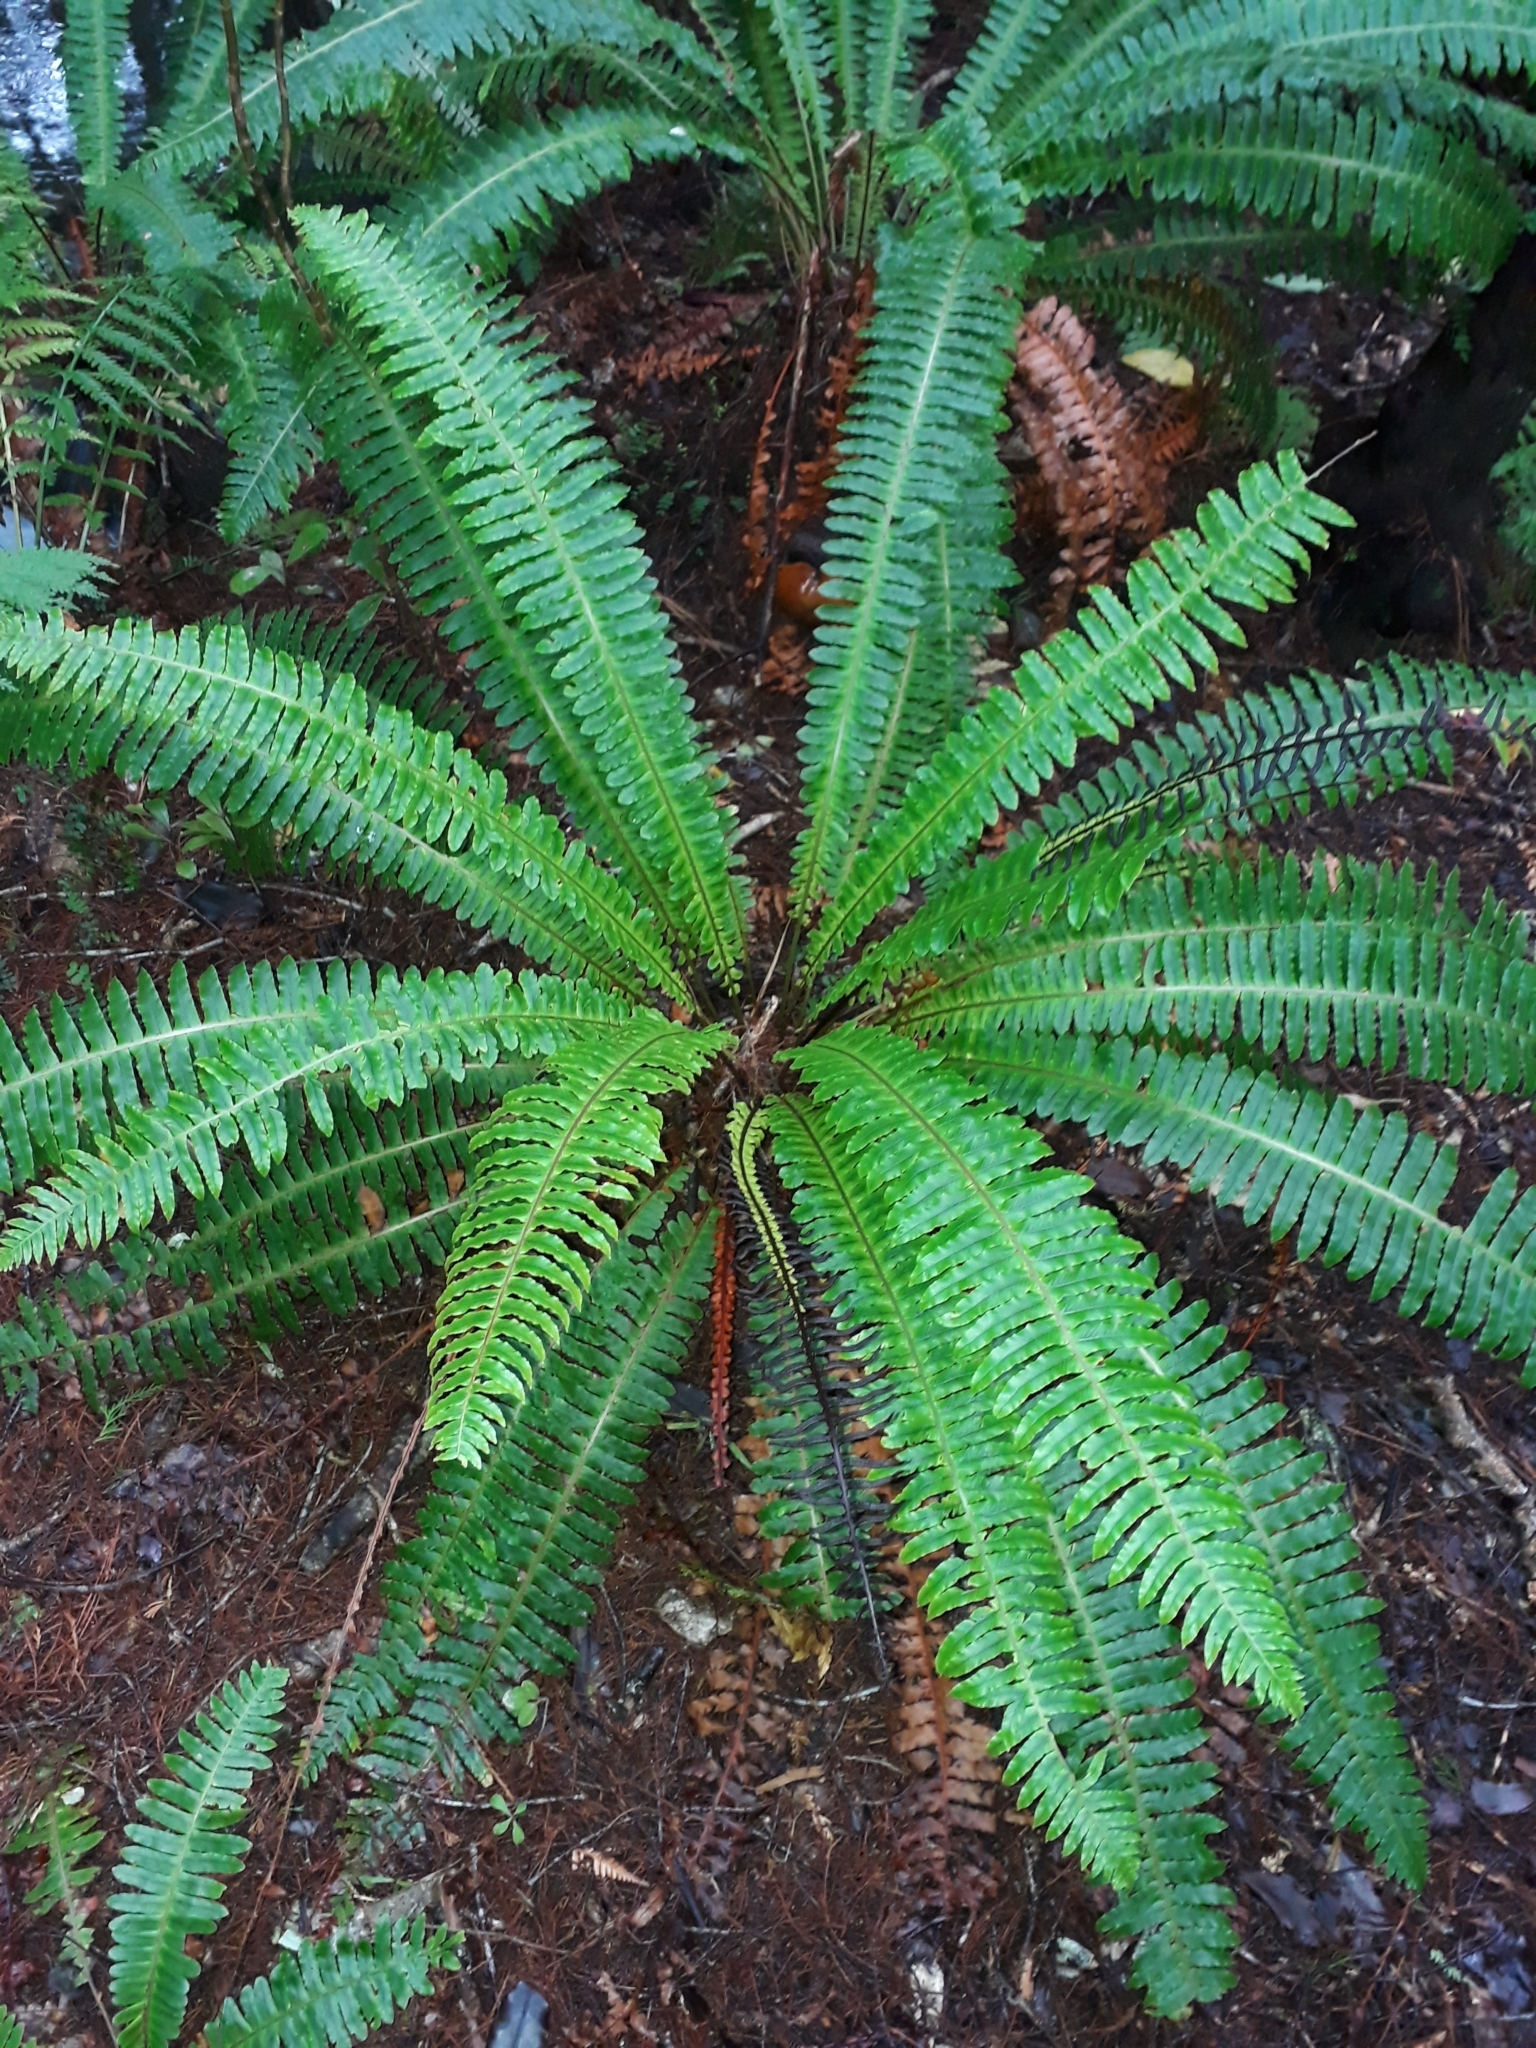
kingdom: Plantae
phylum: Tracheophyta
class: Polypodiopsida
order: Polypodiales
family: Blechnaceae
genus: Lomaria
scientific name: Lomaria discolor
